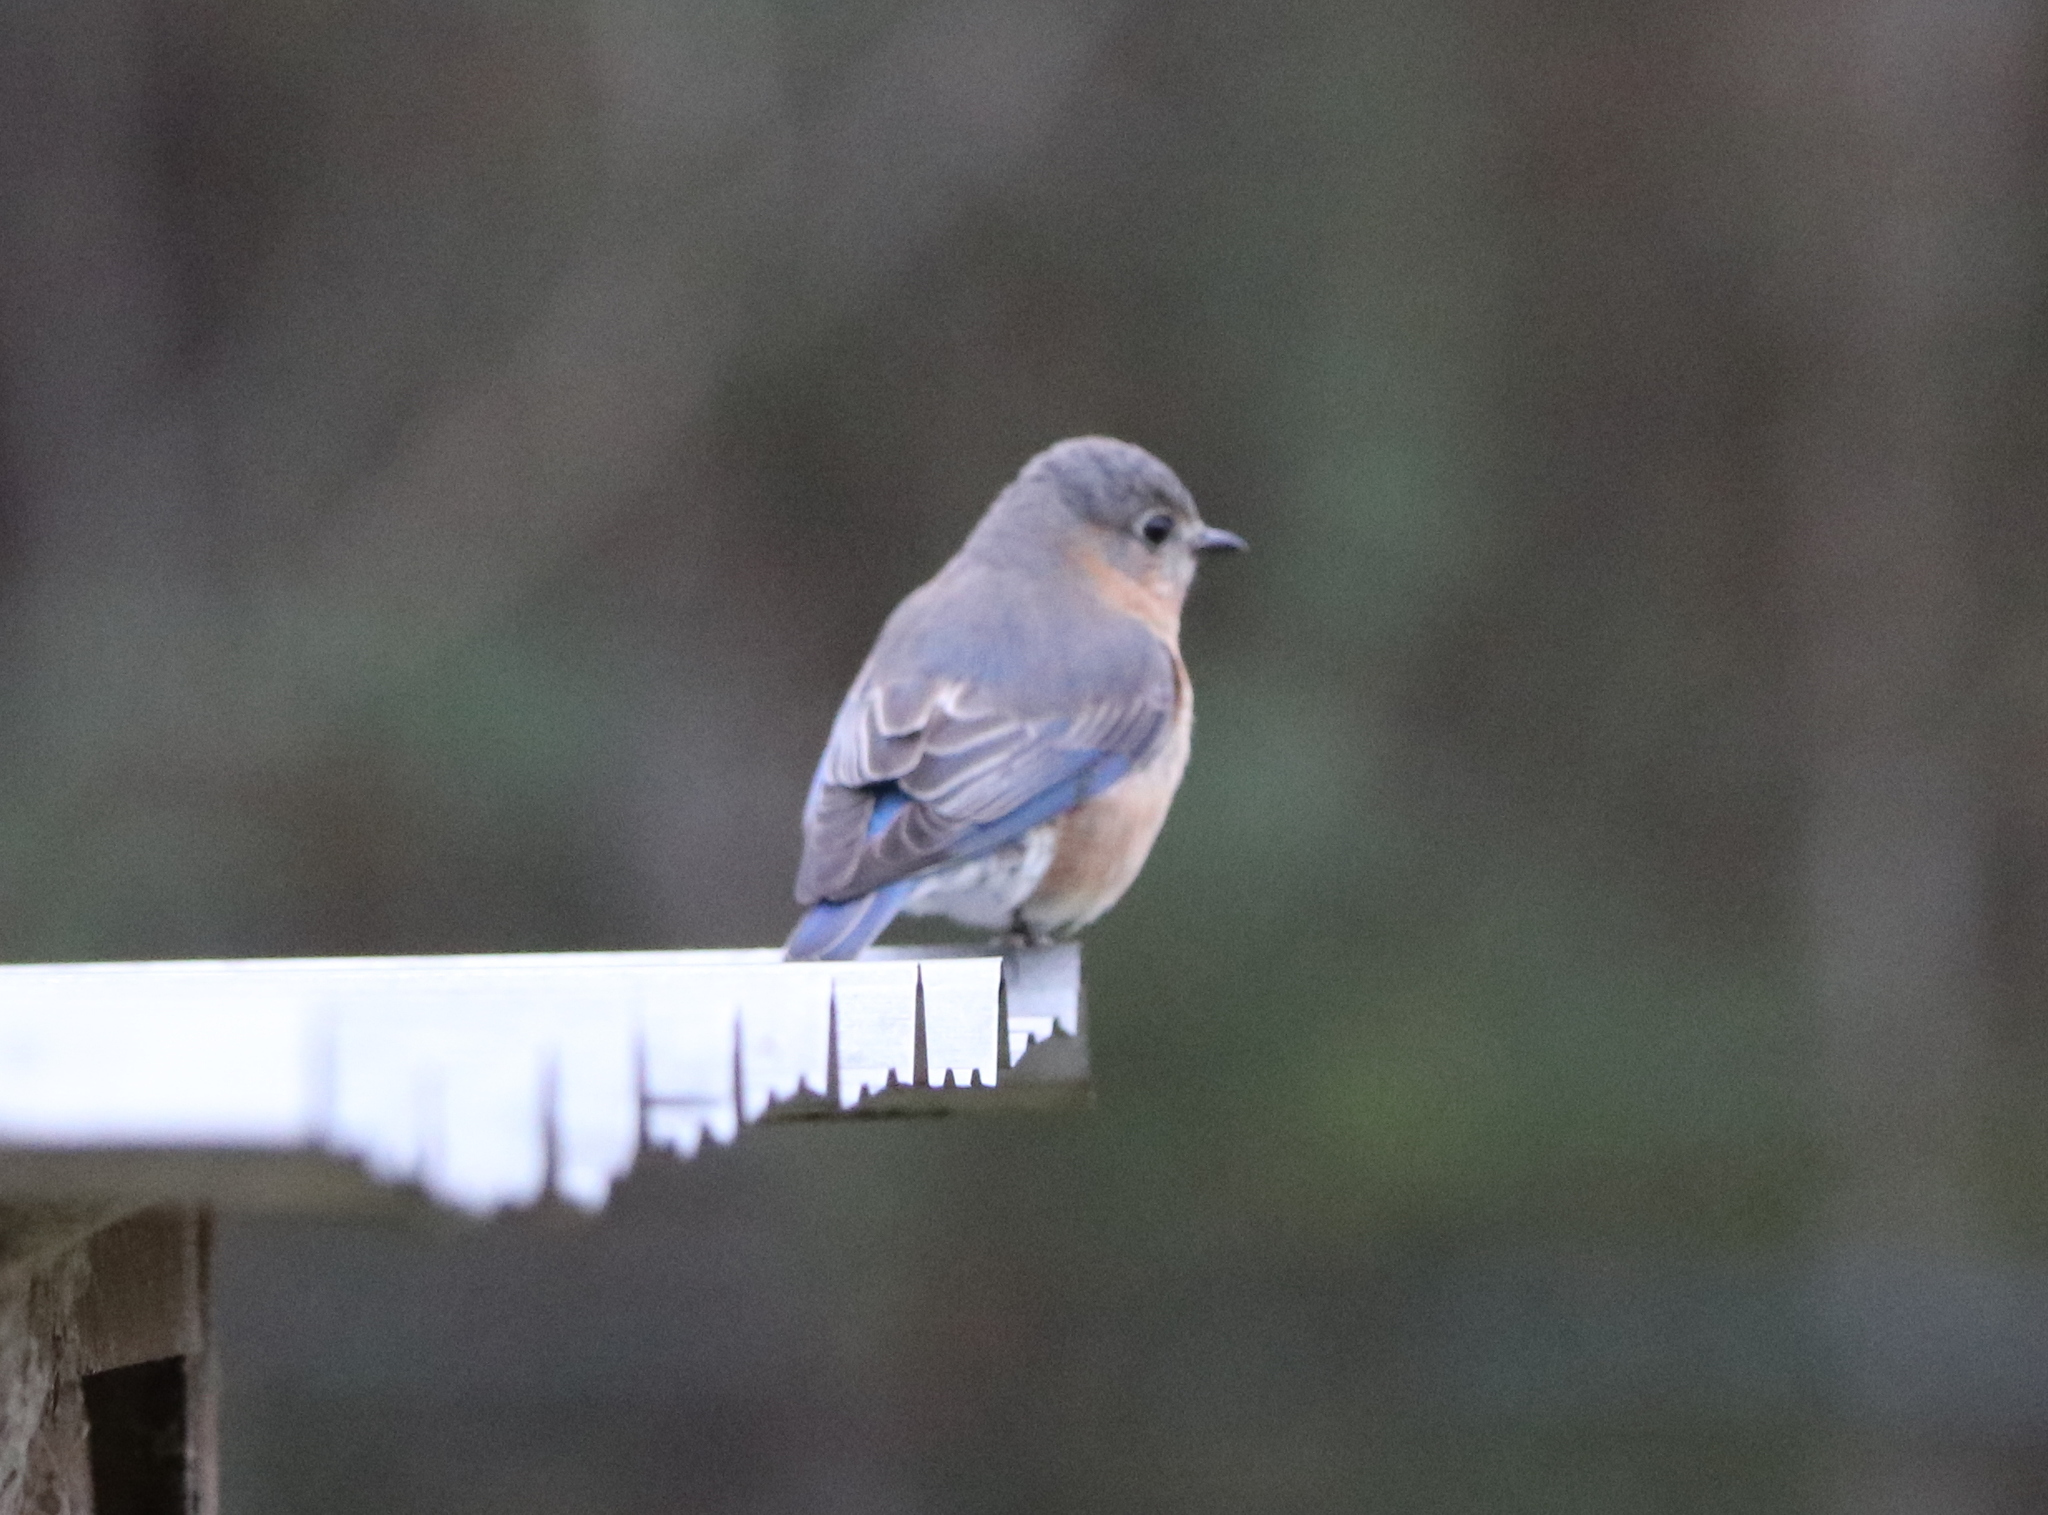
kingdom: Animalia
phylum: Chordata
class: Aves
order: Passeriformes
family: Turdidae
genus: Sialia
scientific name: Sialia sialis
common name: Eastern bluebird
